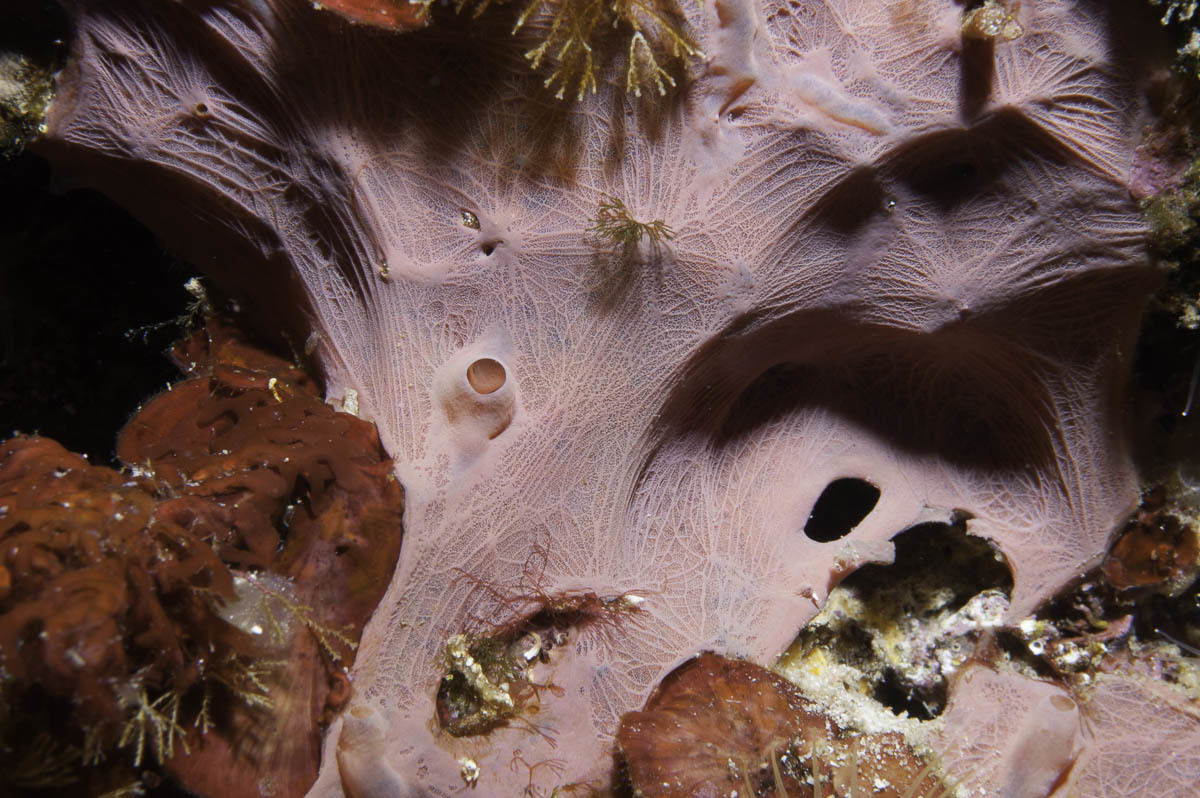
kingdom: Animalia
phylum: Porifera
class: Demospongiae
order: Verongiida
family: Ianthellidae
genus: Hexadella
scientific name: Hexadella racovitzai
